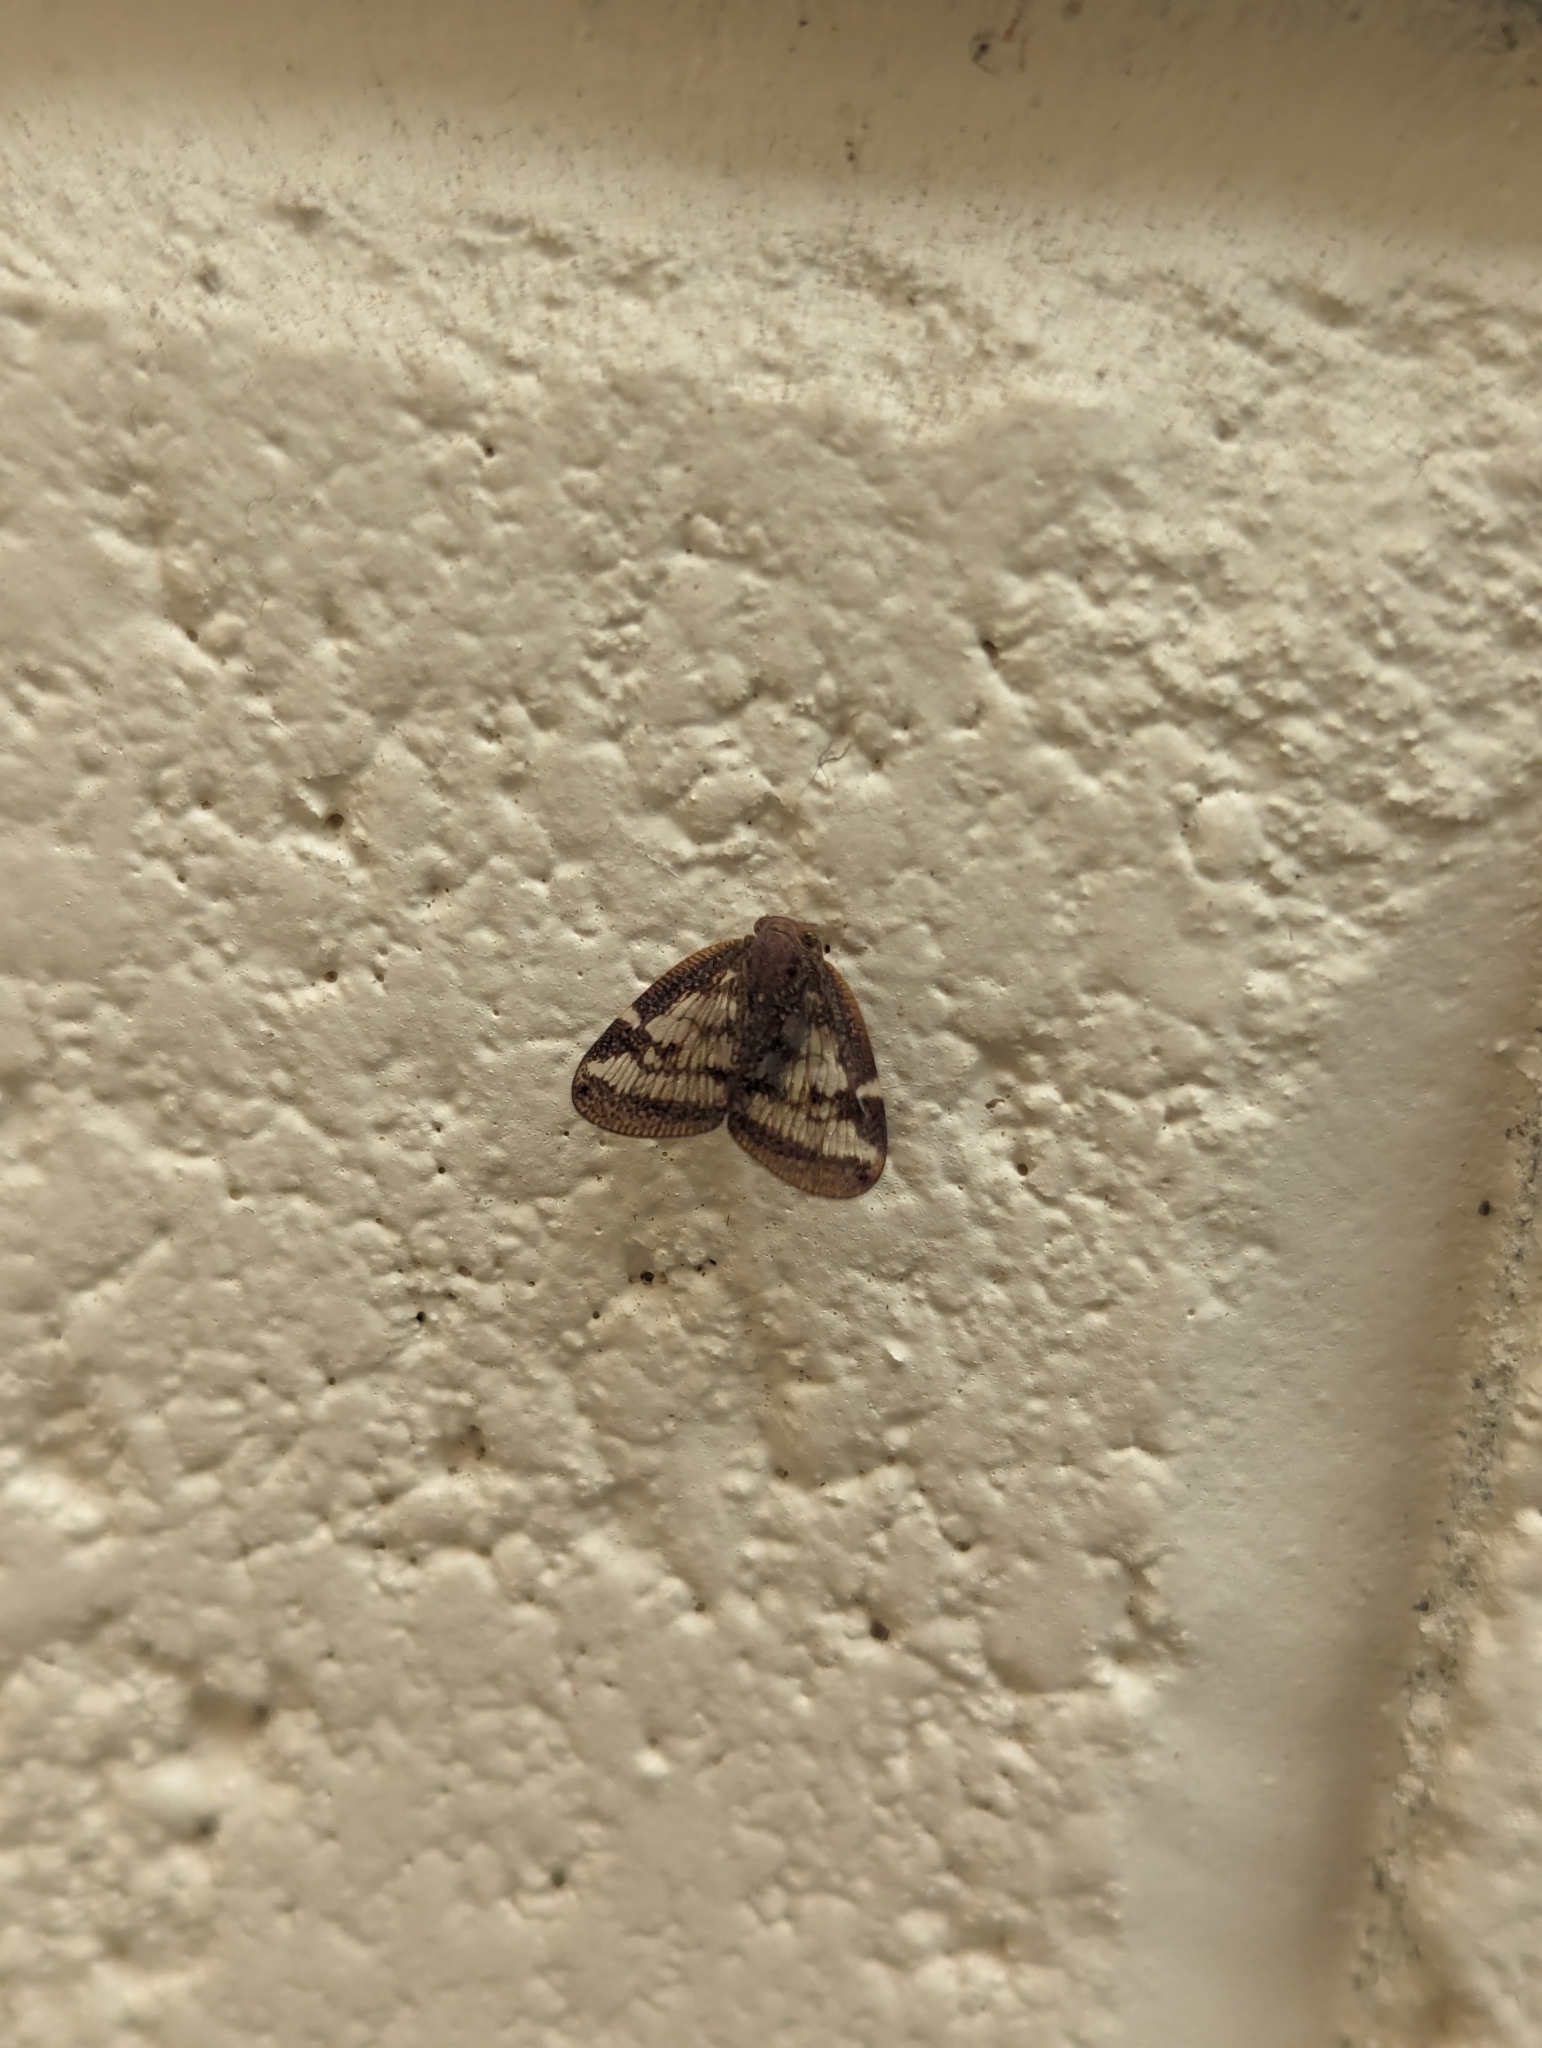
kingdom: Animalia
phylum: Arthropoda
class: Insecta
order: Hemiptera
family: Ricaniidae
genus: Scolypopa
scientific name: Scolypopa australis
